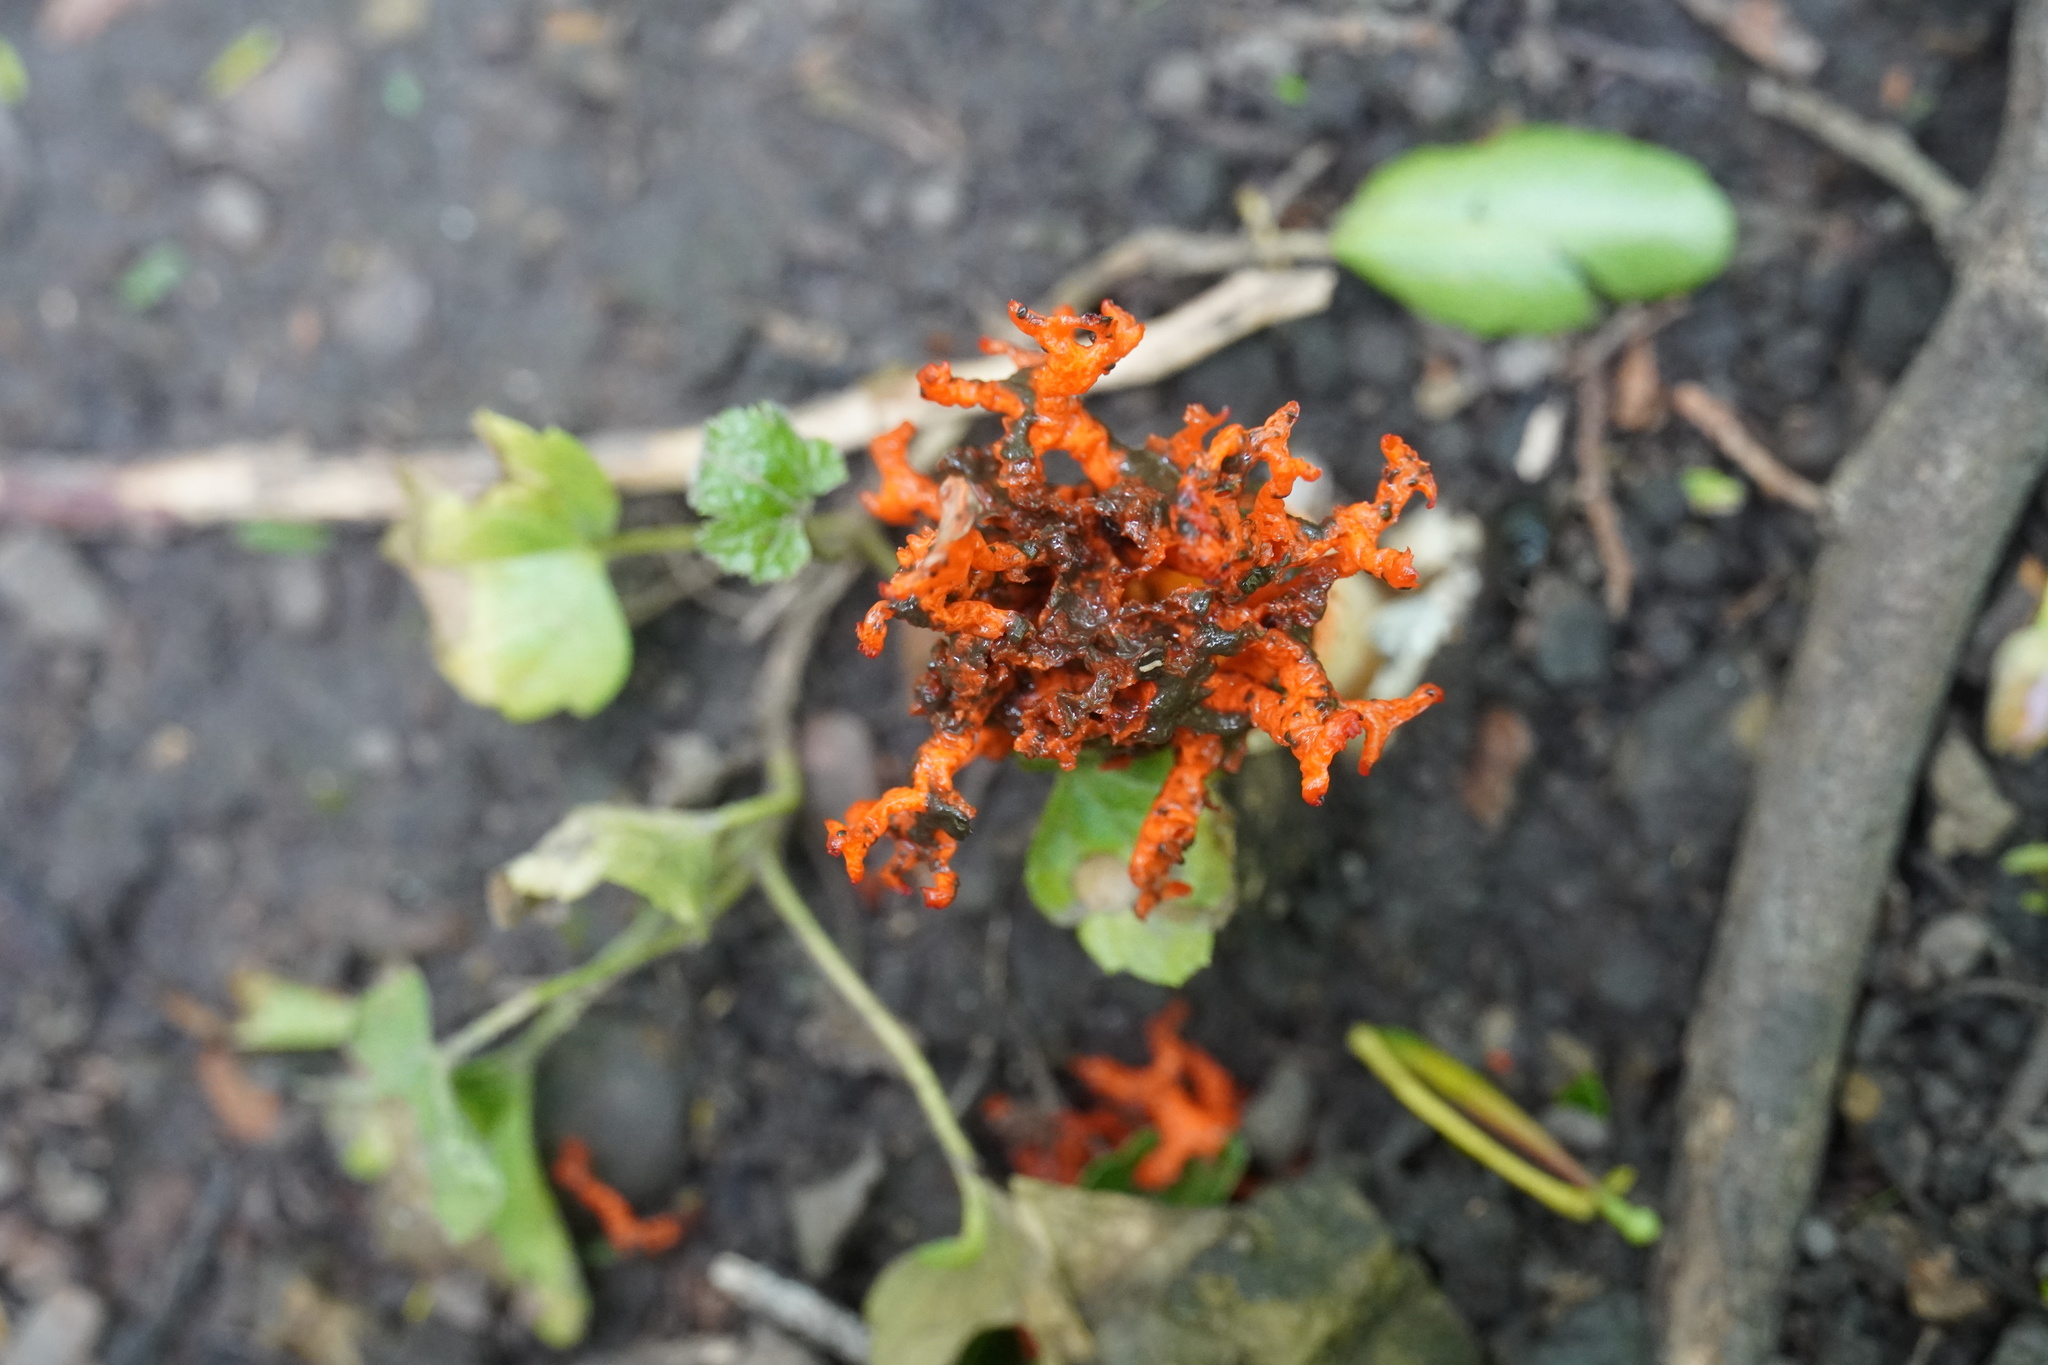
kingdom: Fungi
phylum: Basidiomycota
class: Agaricomycetes
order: Phallales
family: Phallaceae
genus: Lysurus
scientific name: Lysurus corallocephalus
